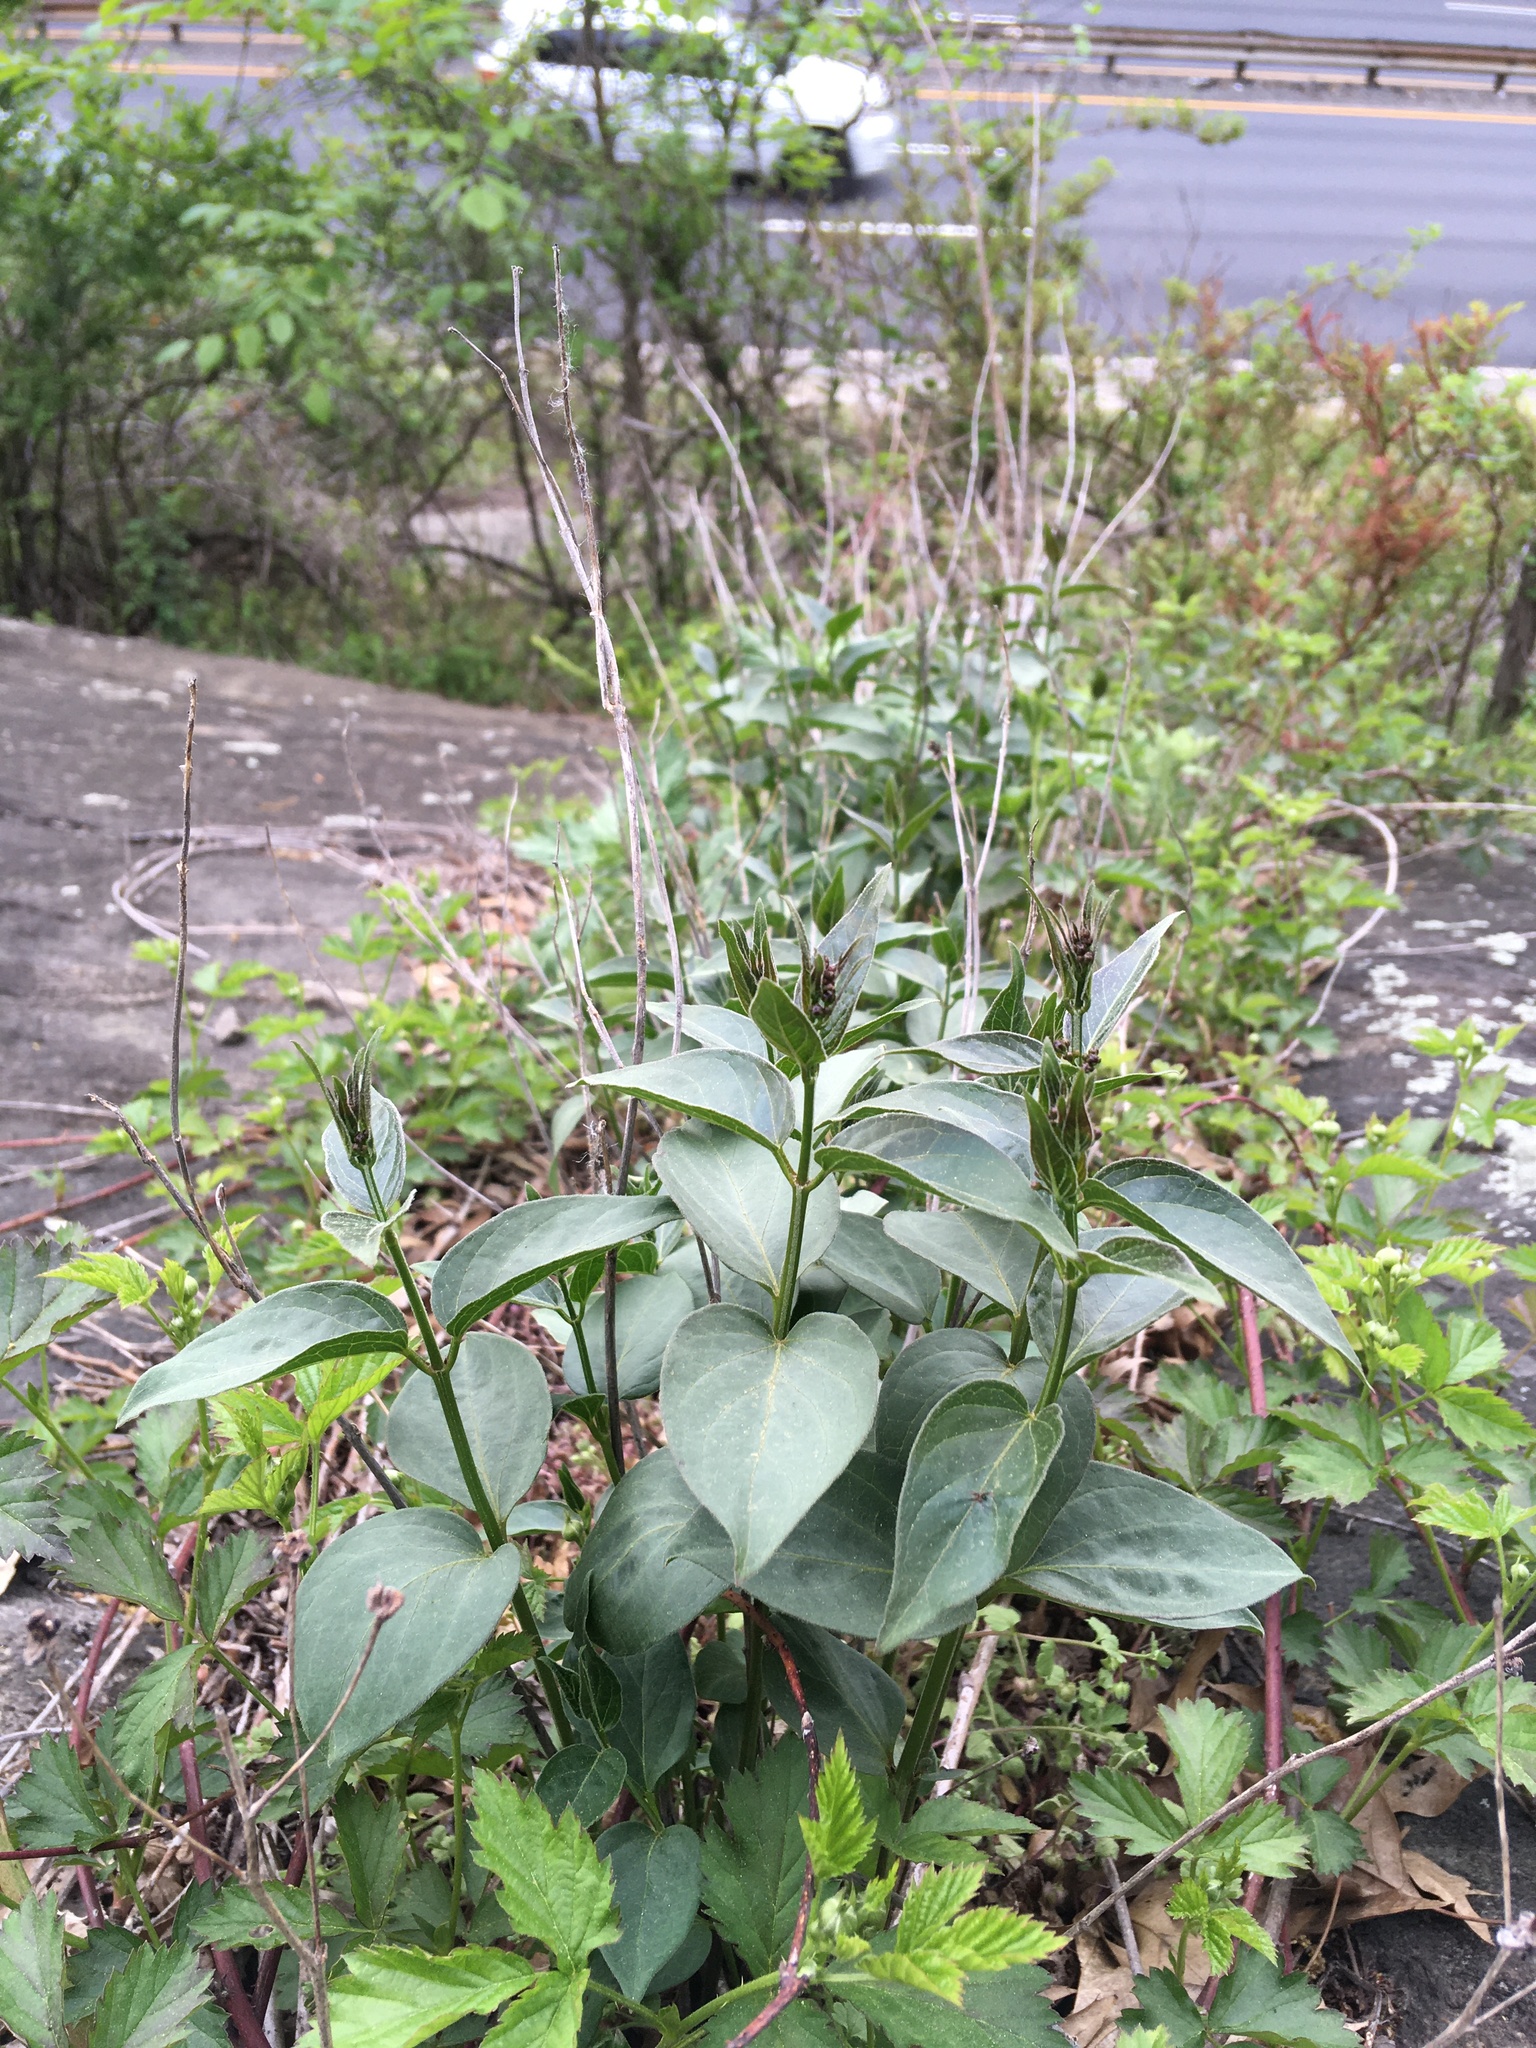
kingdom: Plantae
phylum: Tracheophyta
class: Magnoliopsida
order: Gentianales
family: Apocynaceae
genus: Vincetoxicum
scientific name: Vincetoxicum nigrum
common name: Black swallow-wort
